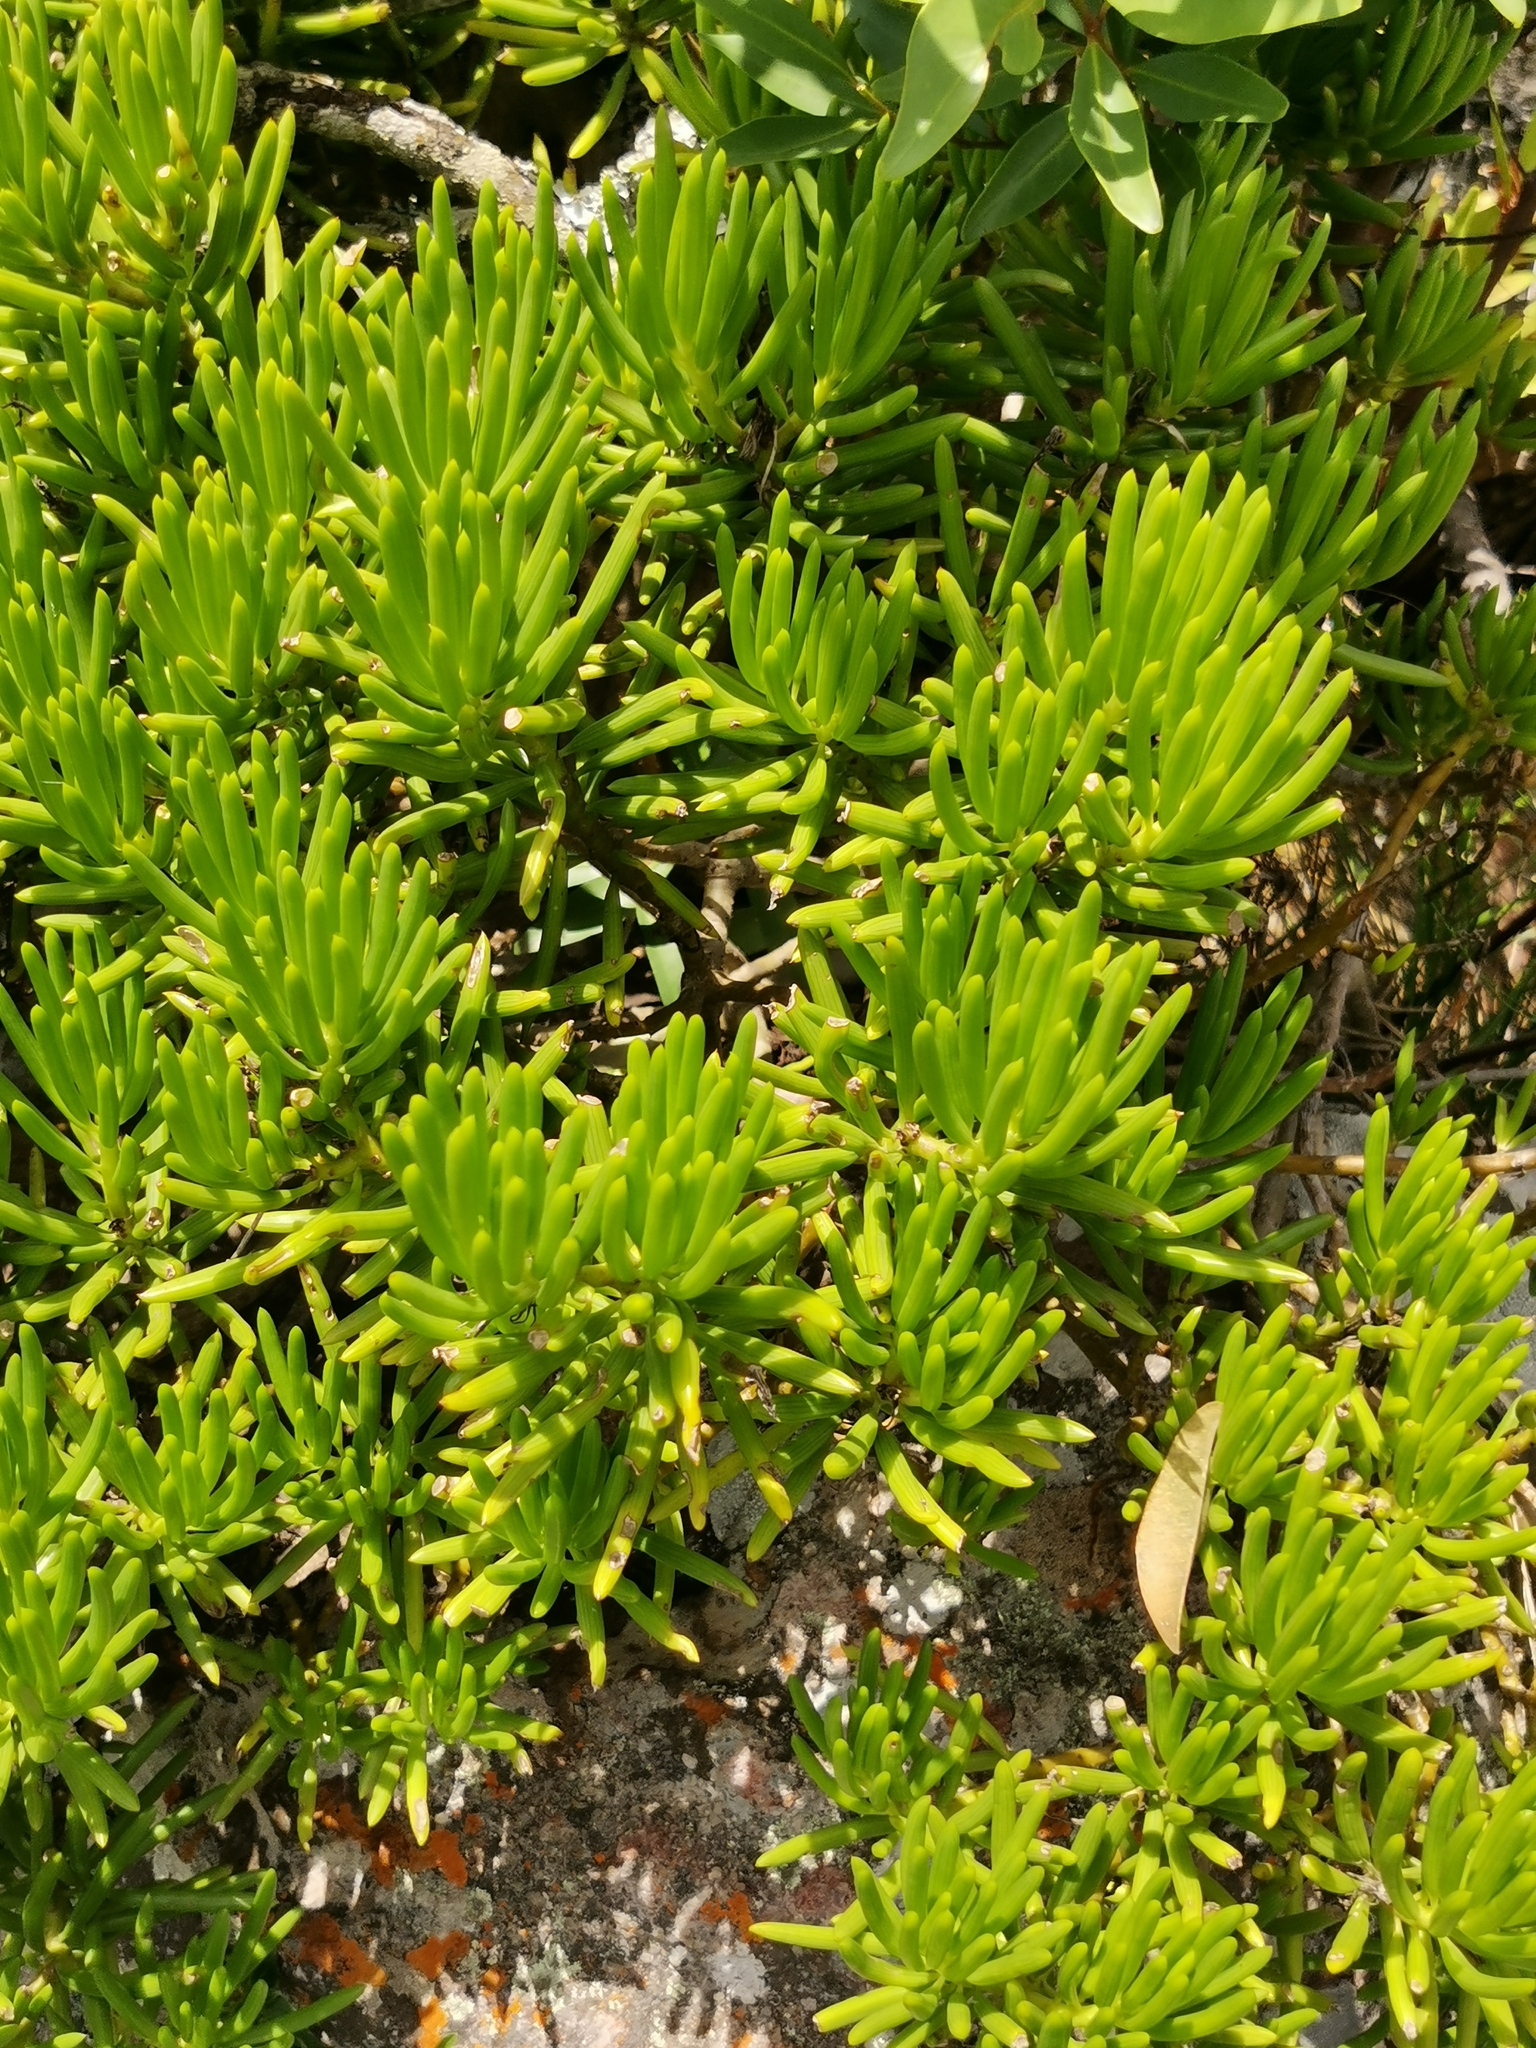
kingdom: Plantae
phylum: Tracheophyta
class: Magnoliopsida
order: Asterales
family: Asteraceae
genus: Kleinia
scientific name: Kleinia barbertonica
